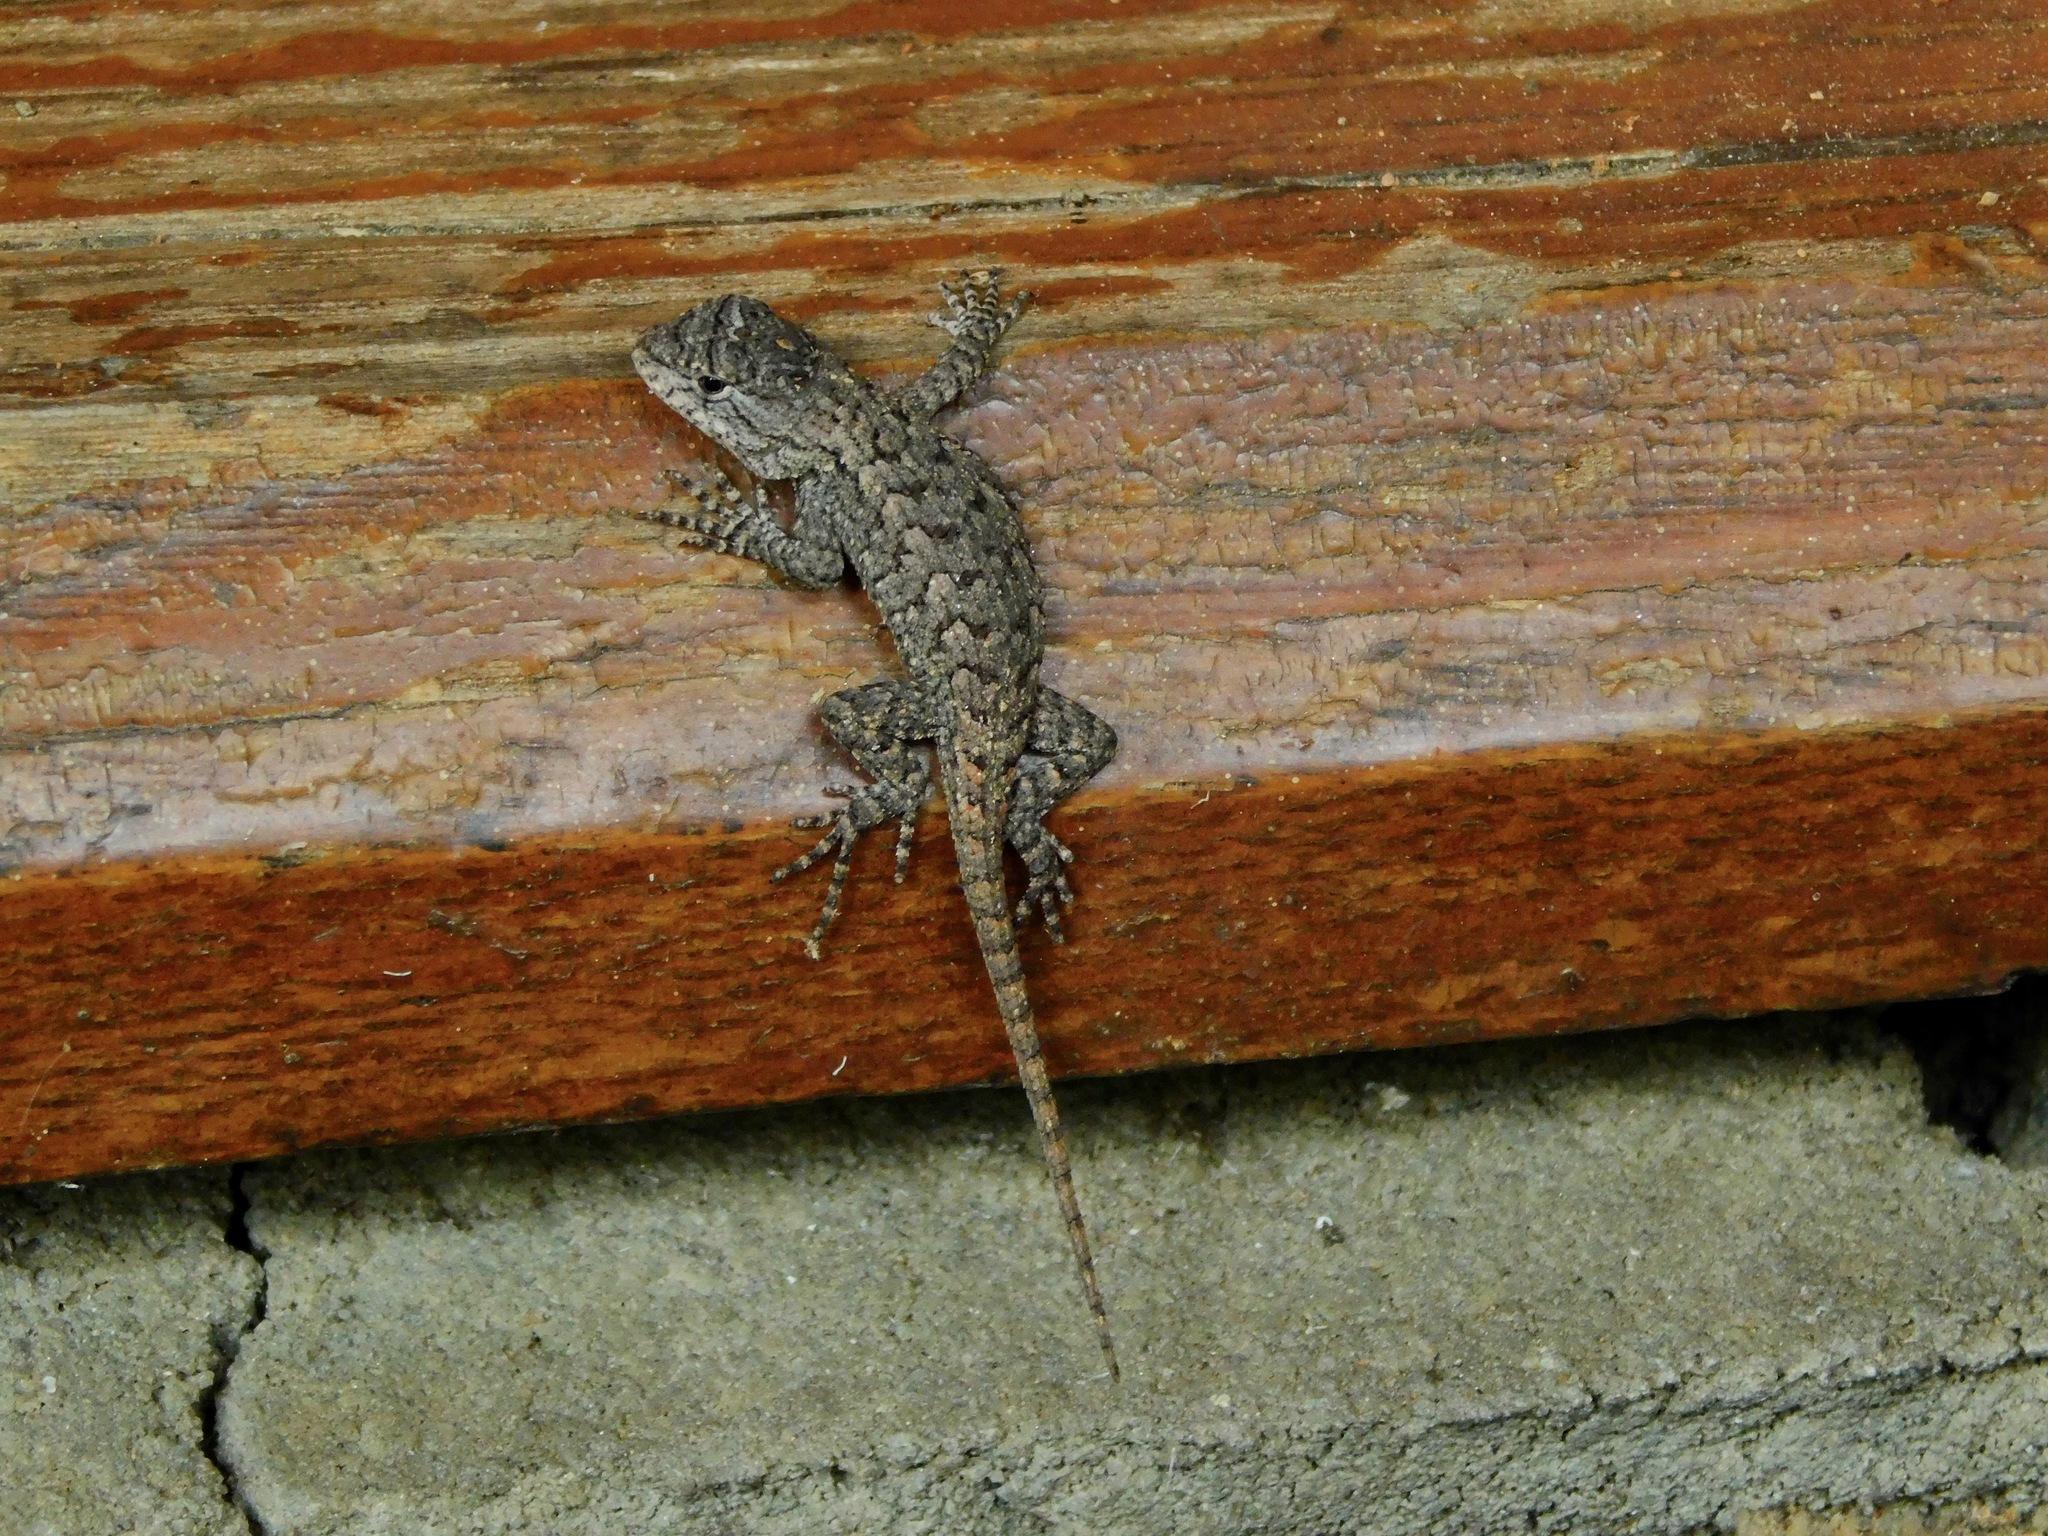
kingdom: Animalia
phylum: Chordata
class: Squamata
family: Phrynosomatidae
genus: Sceloporus
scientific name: Sceloporus undulatus
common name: Eastern fence lizard
